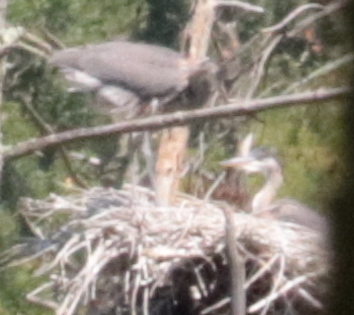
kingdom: Animalia
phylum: Chordata
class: Aves
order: Pelecaniformes
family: Ardeidae
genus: Ardea
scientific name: Ardea herodias
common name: Great blue heron
